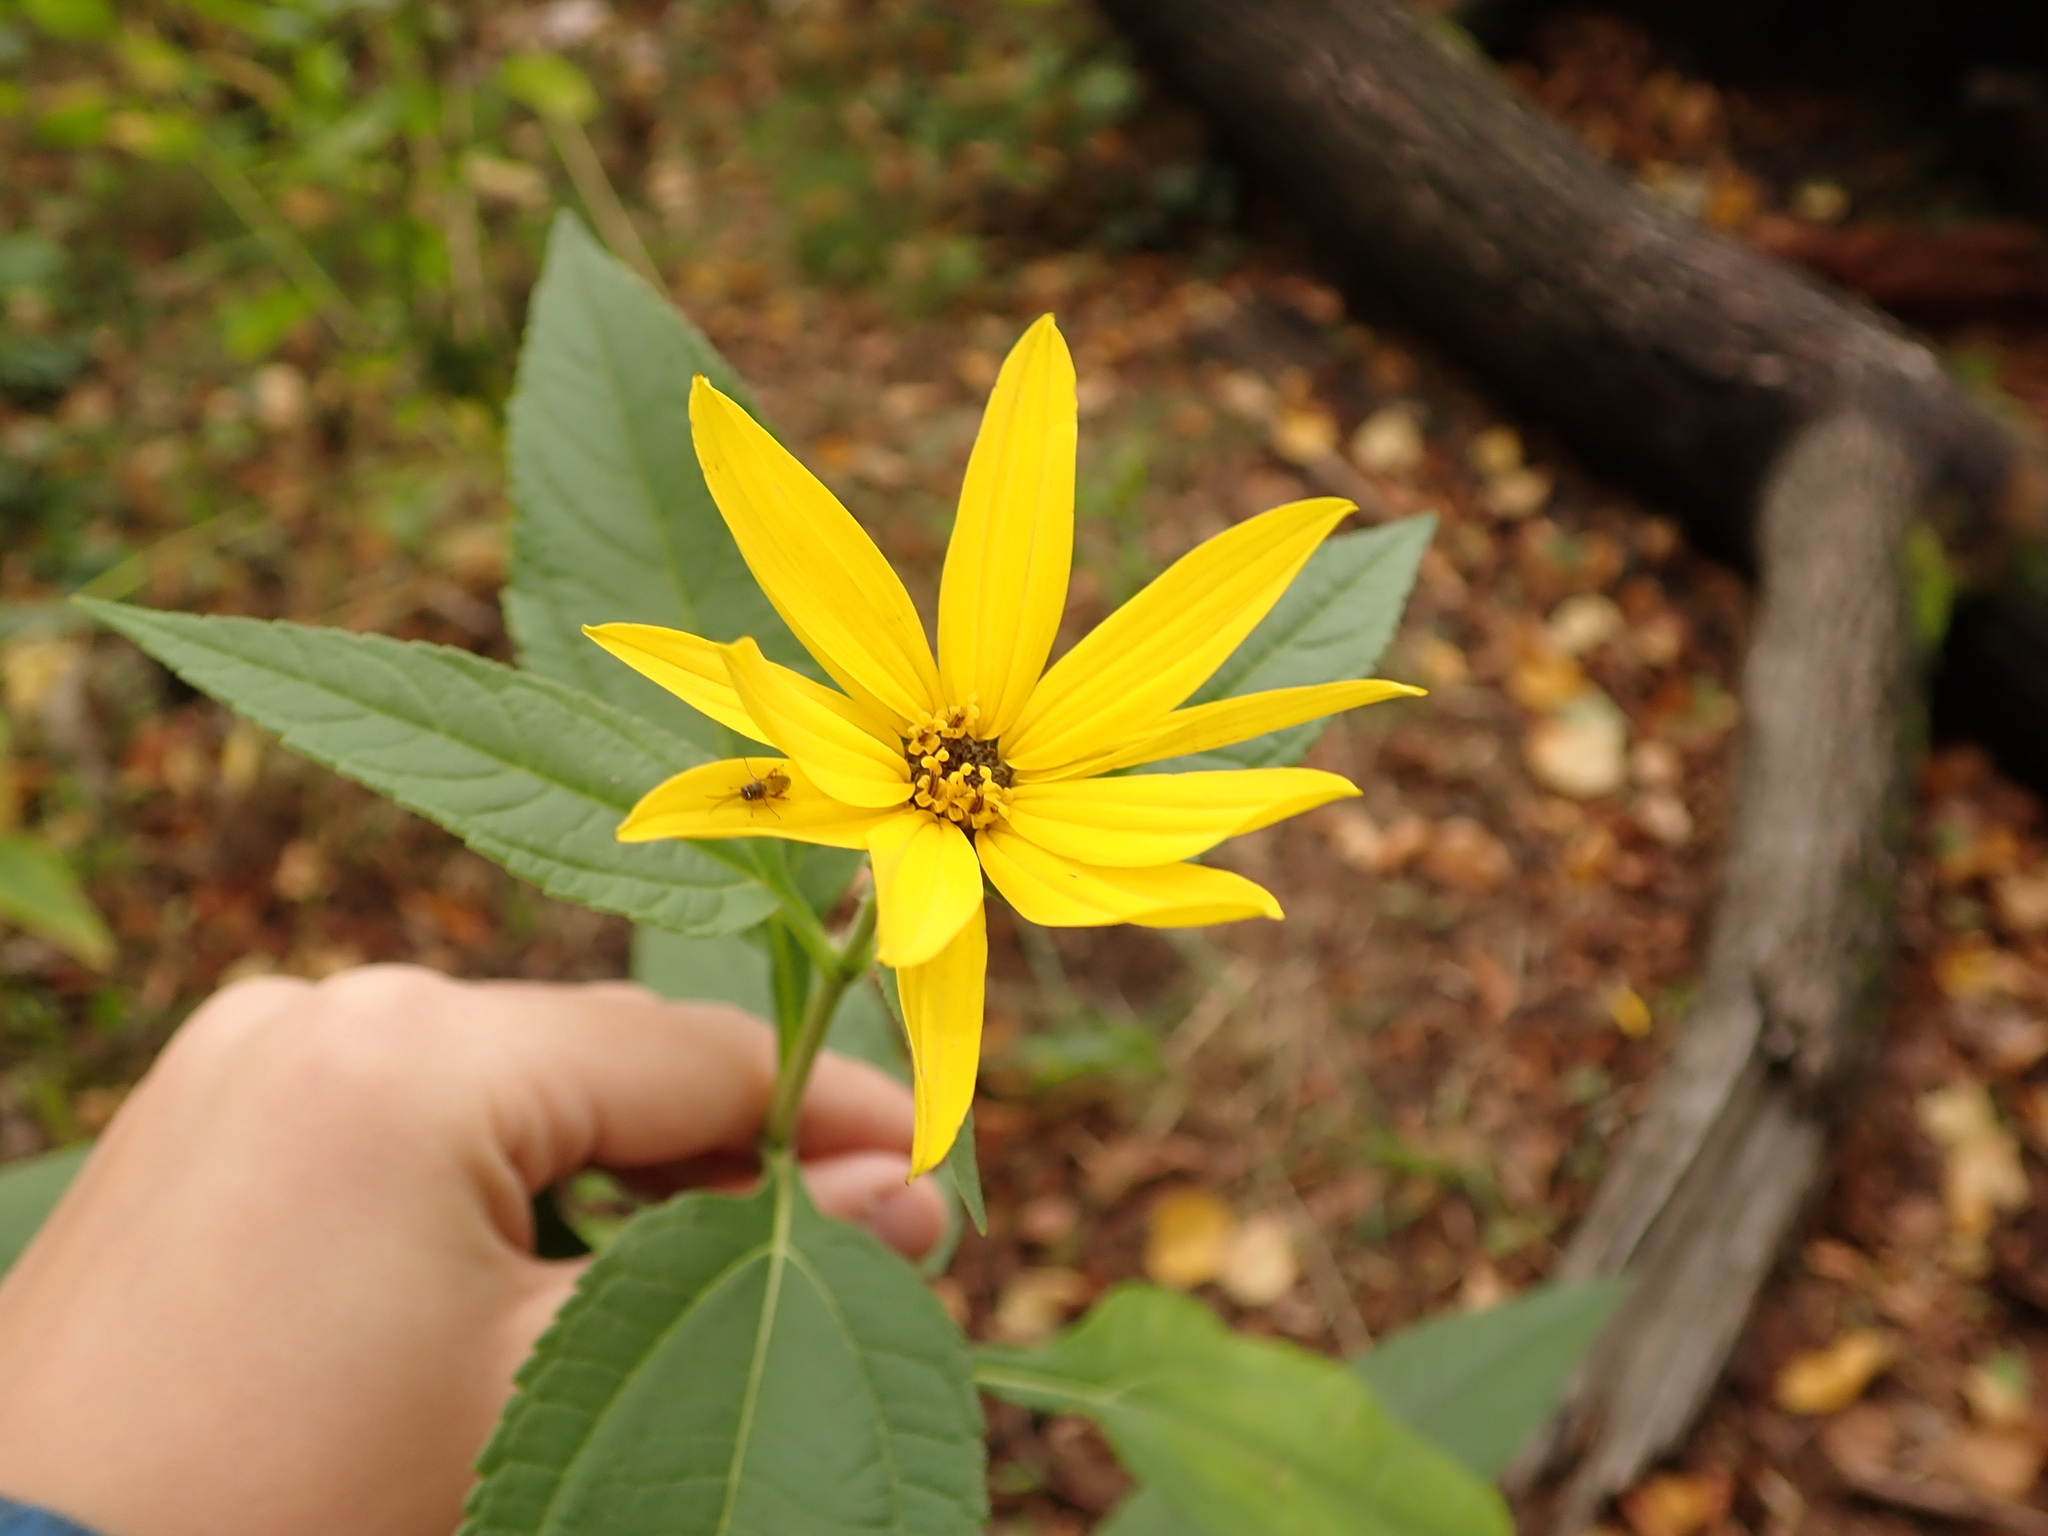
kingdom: Plantae
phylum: Tracheophyta
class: Magnoliopsida
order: Asterales
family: Asteraceae
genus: Helianthus
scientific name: Helianthus tuberosus
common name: Jerusalem artichoke
